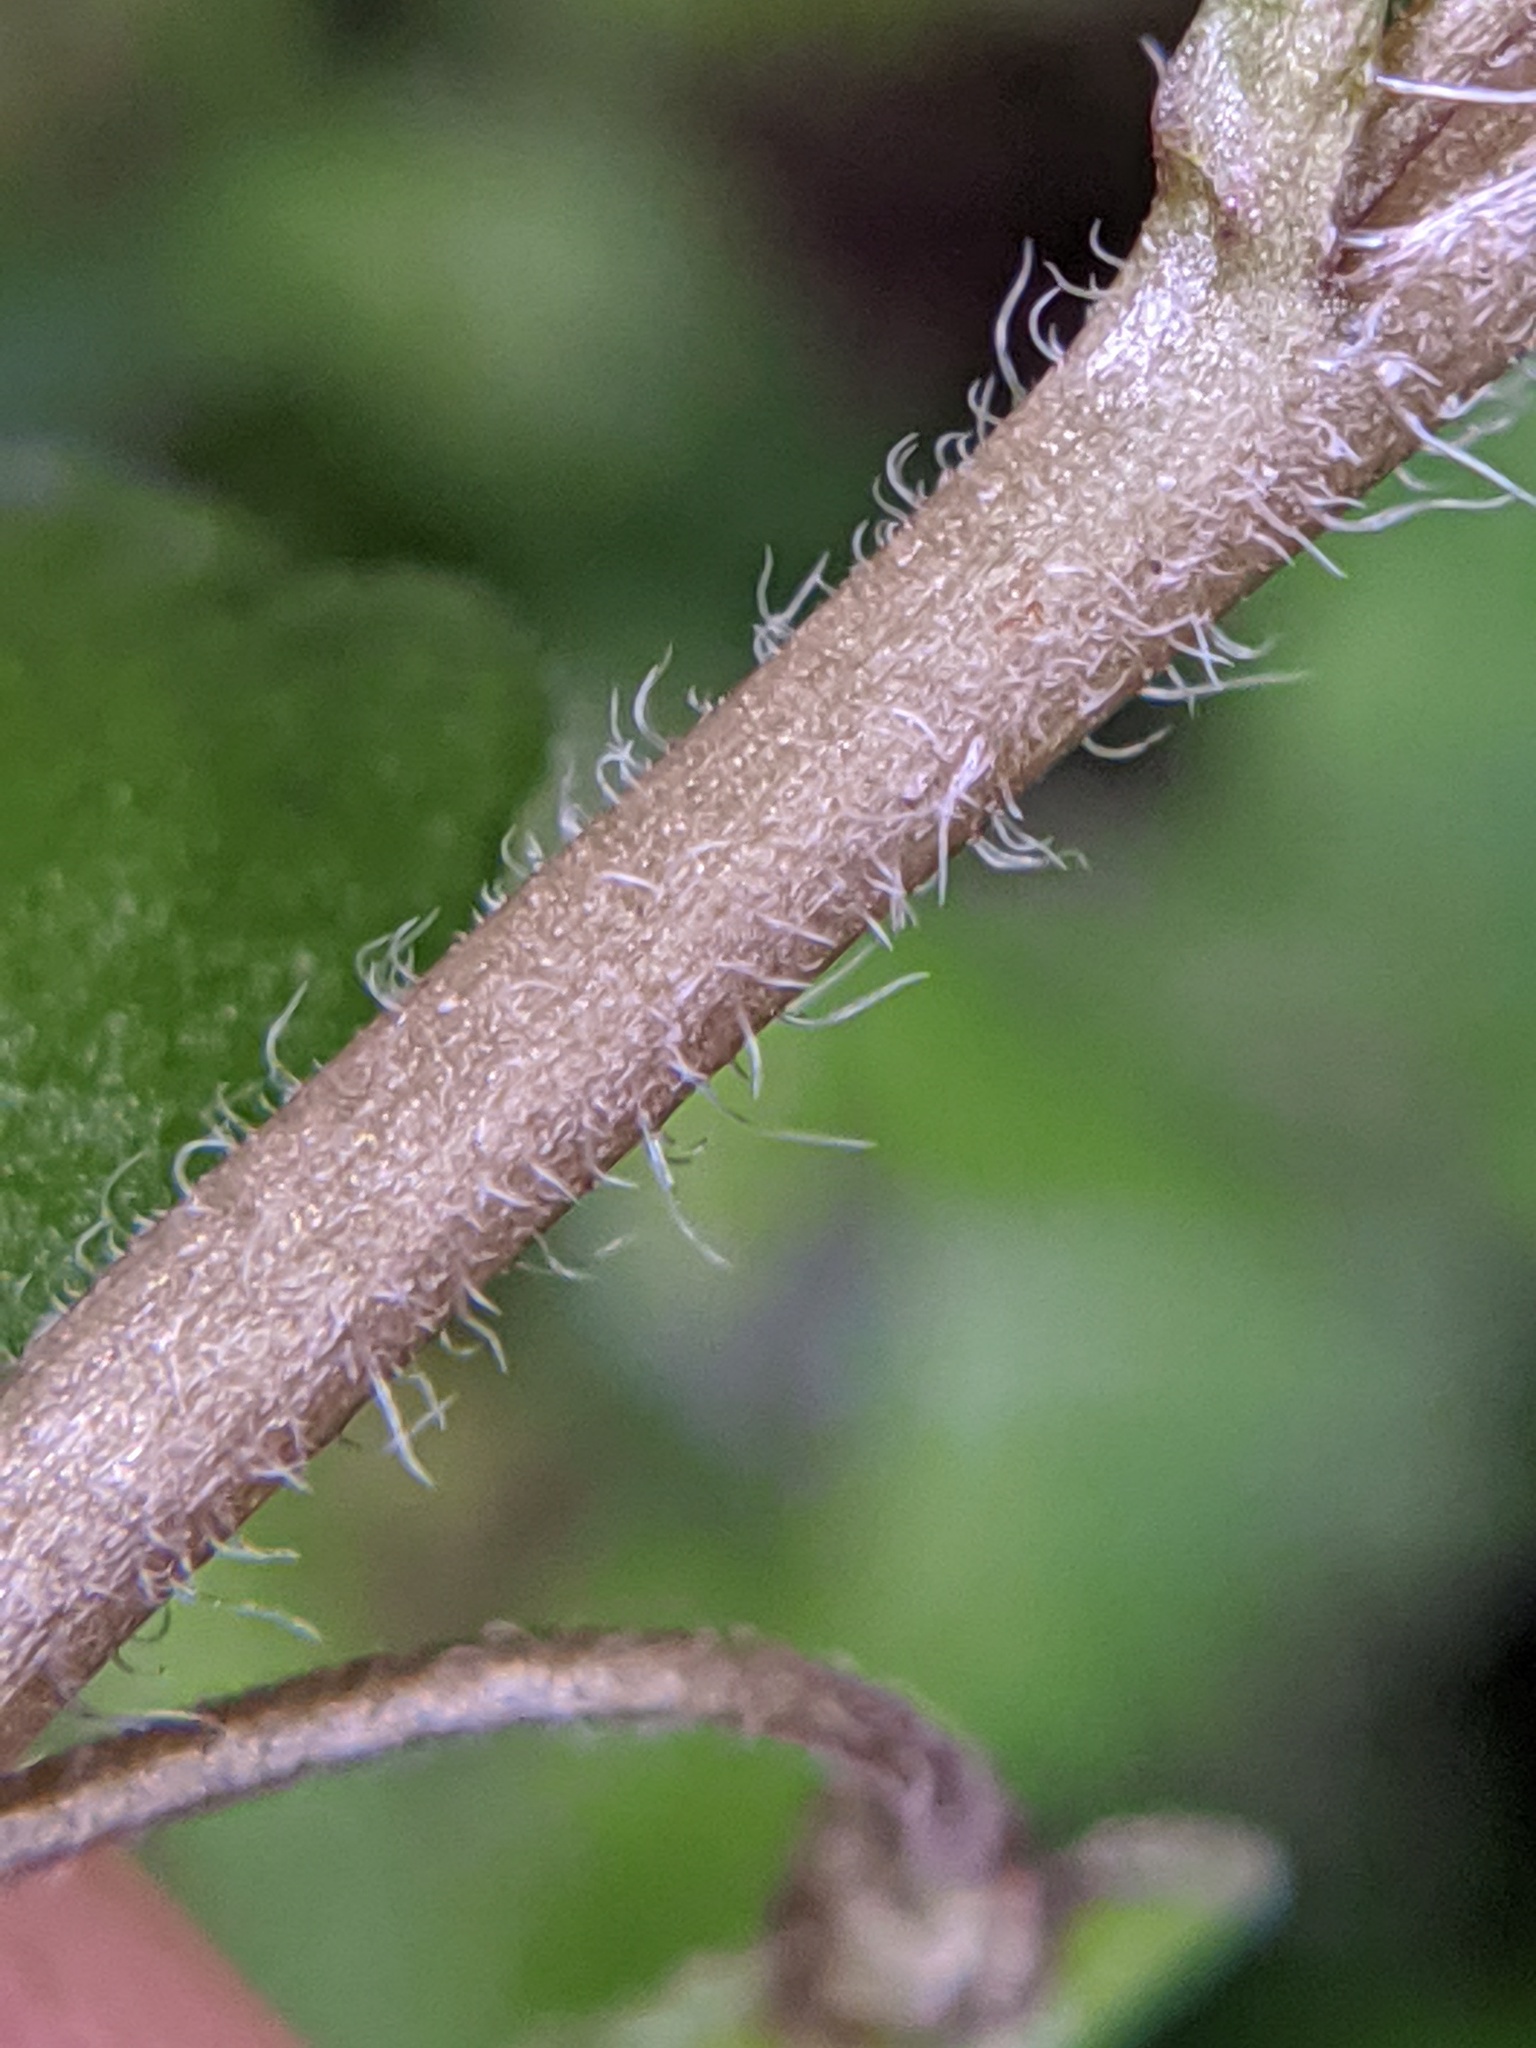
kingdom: Plantae
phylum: Tracheophyta
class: Magnoliopsida
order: Lamiales
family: Plantaginaceae
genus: Veronica
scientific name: Veronica polita
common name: Grey field-speedwell
